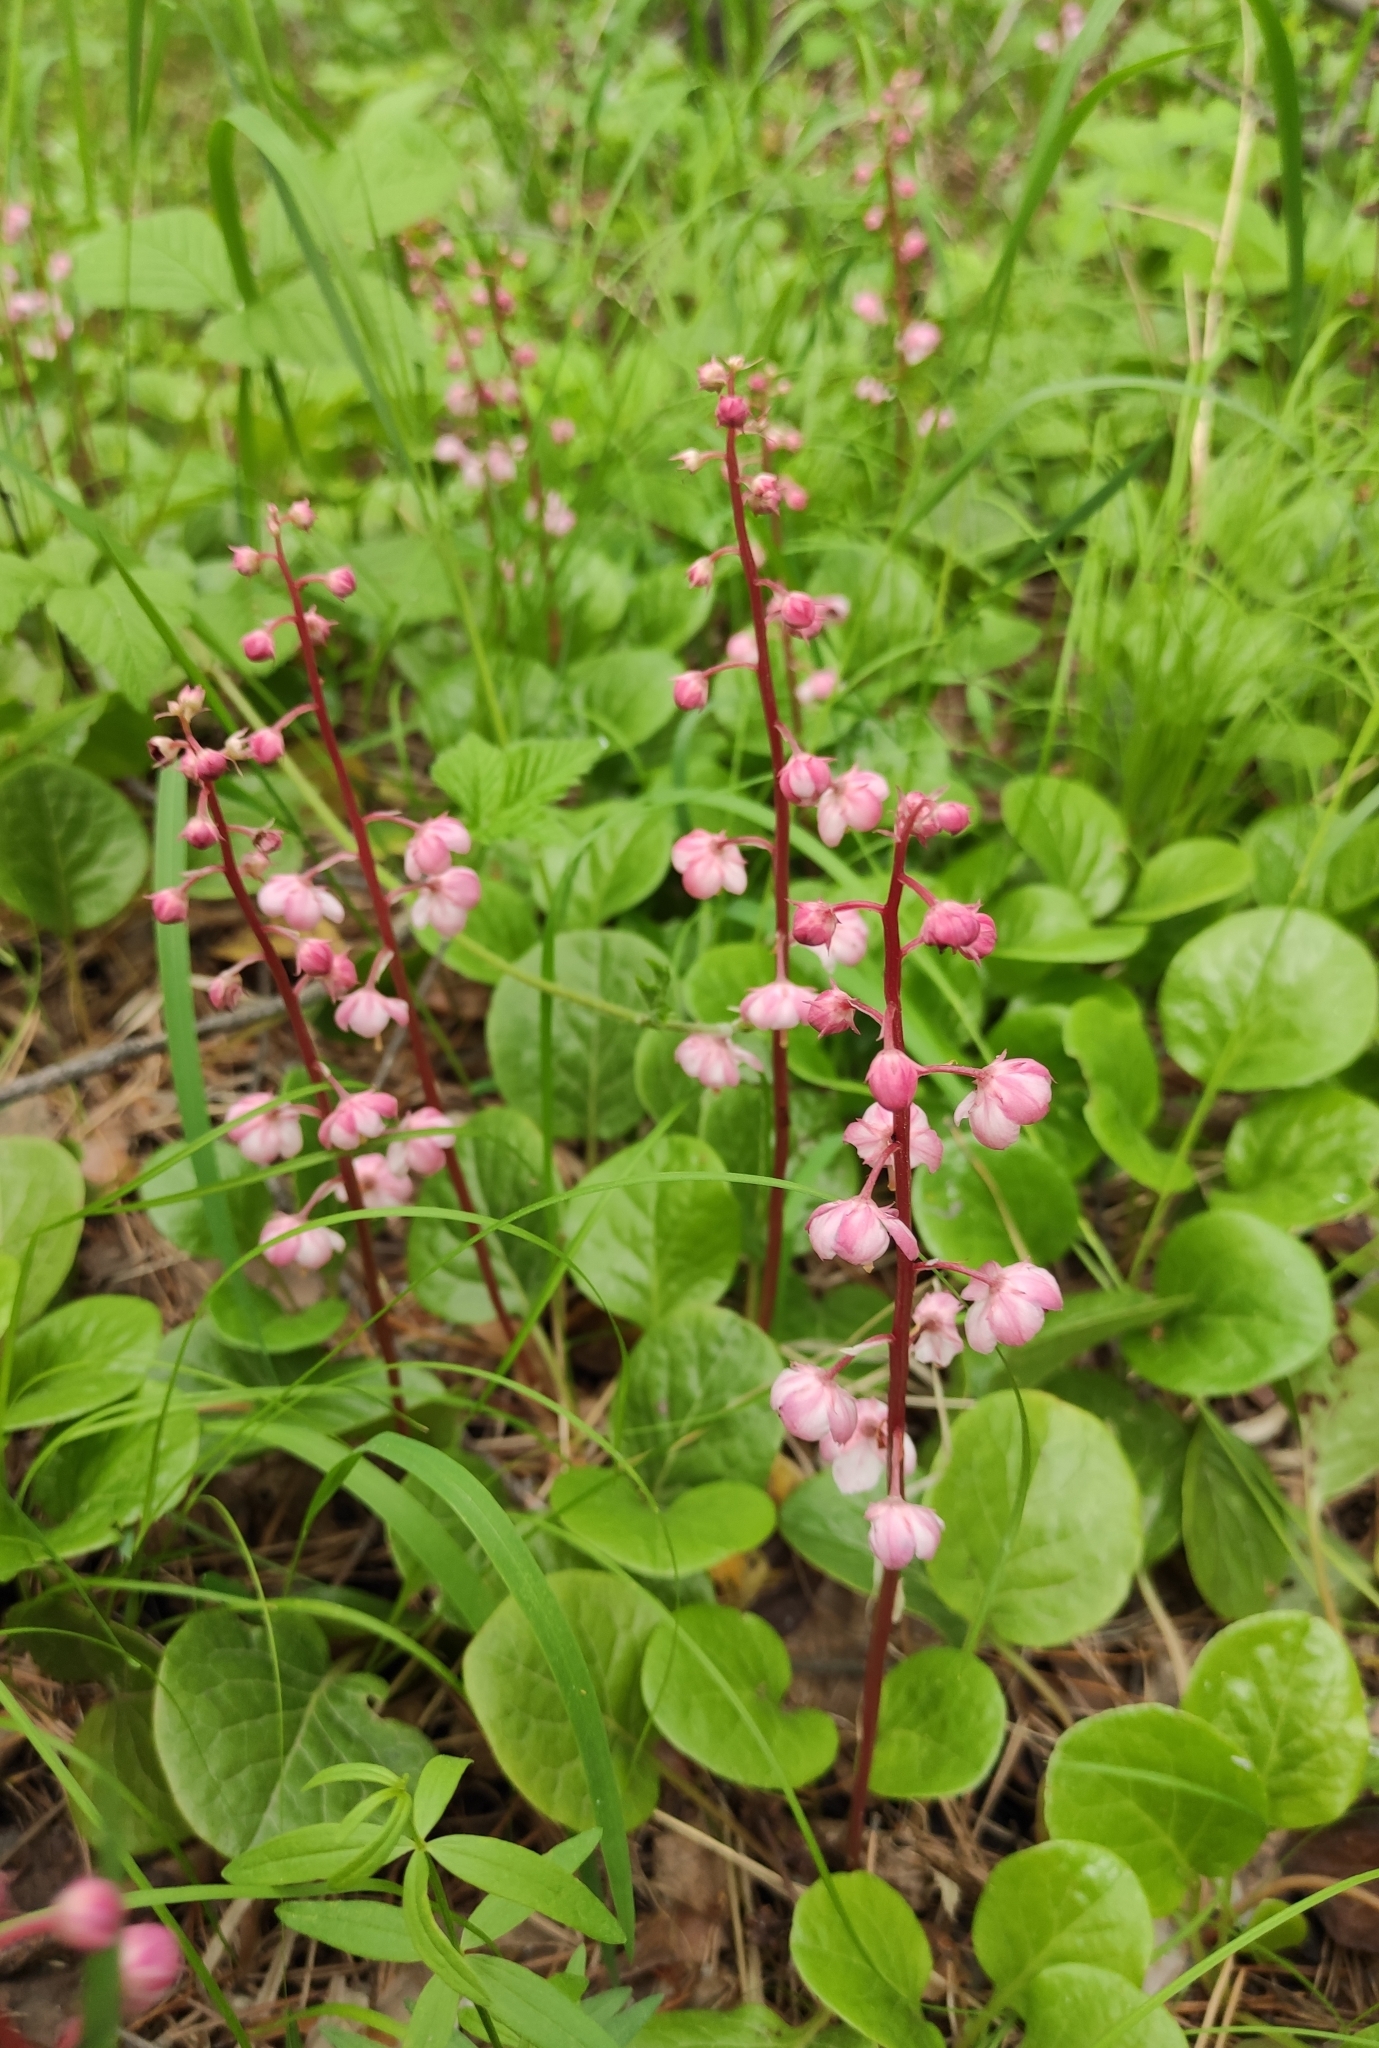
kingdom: Plantae
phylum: Tracheophyta
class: Magnoliopsida
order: Ericales
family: Ericaceae
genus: Pyrola
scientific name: Pyrola asarifolia
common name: Bog wintergreen
